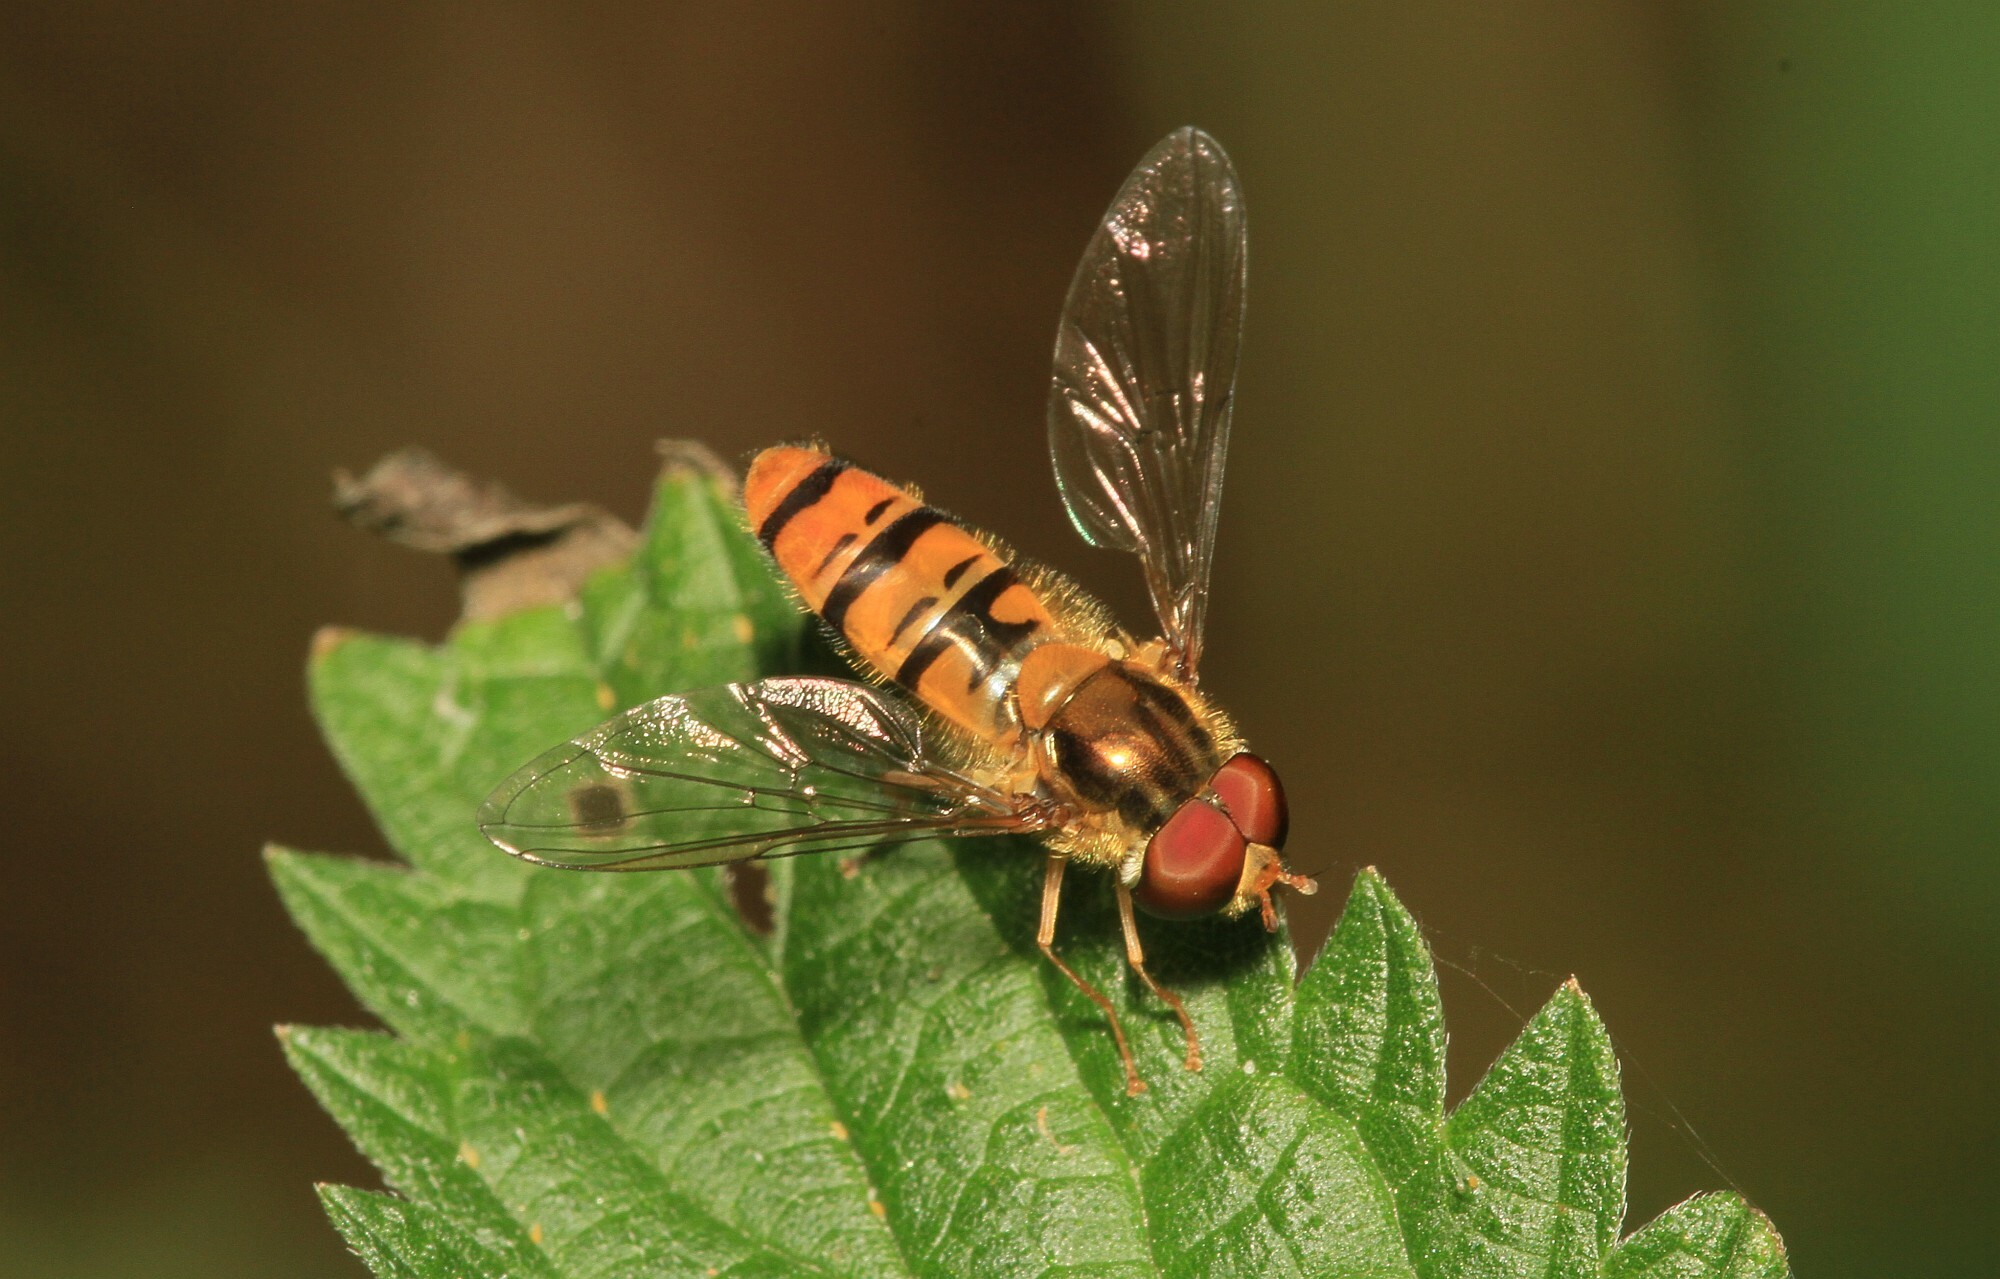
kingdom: Animalia
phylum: Arthropoda
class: Insecta
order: Diptera
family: Syrphidae
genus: Episyrphus
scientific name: Episyrphus balteatus
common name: Marmalade hoverfly
